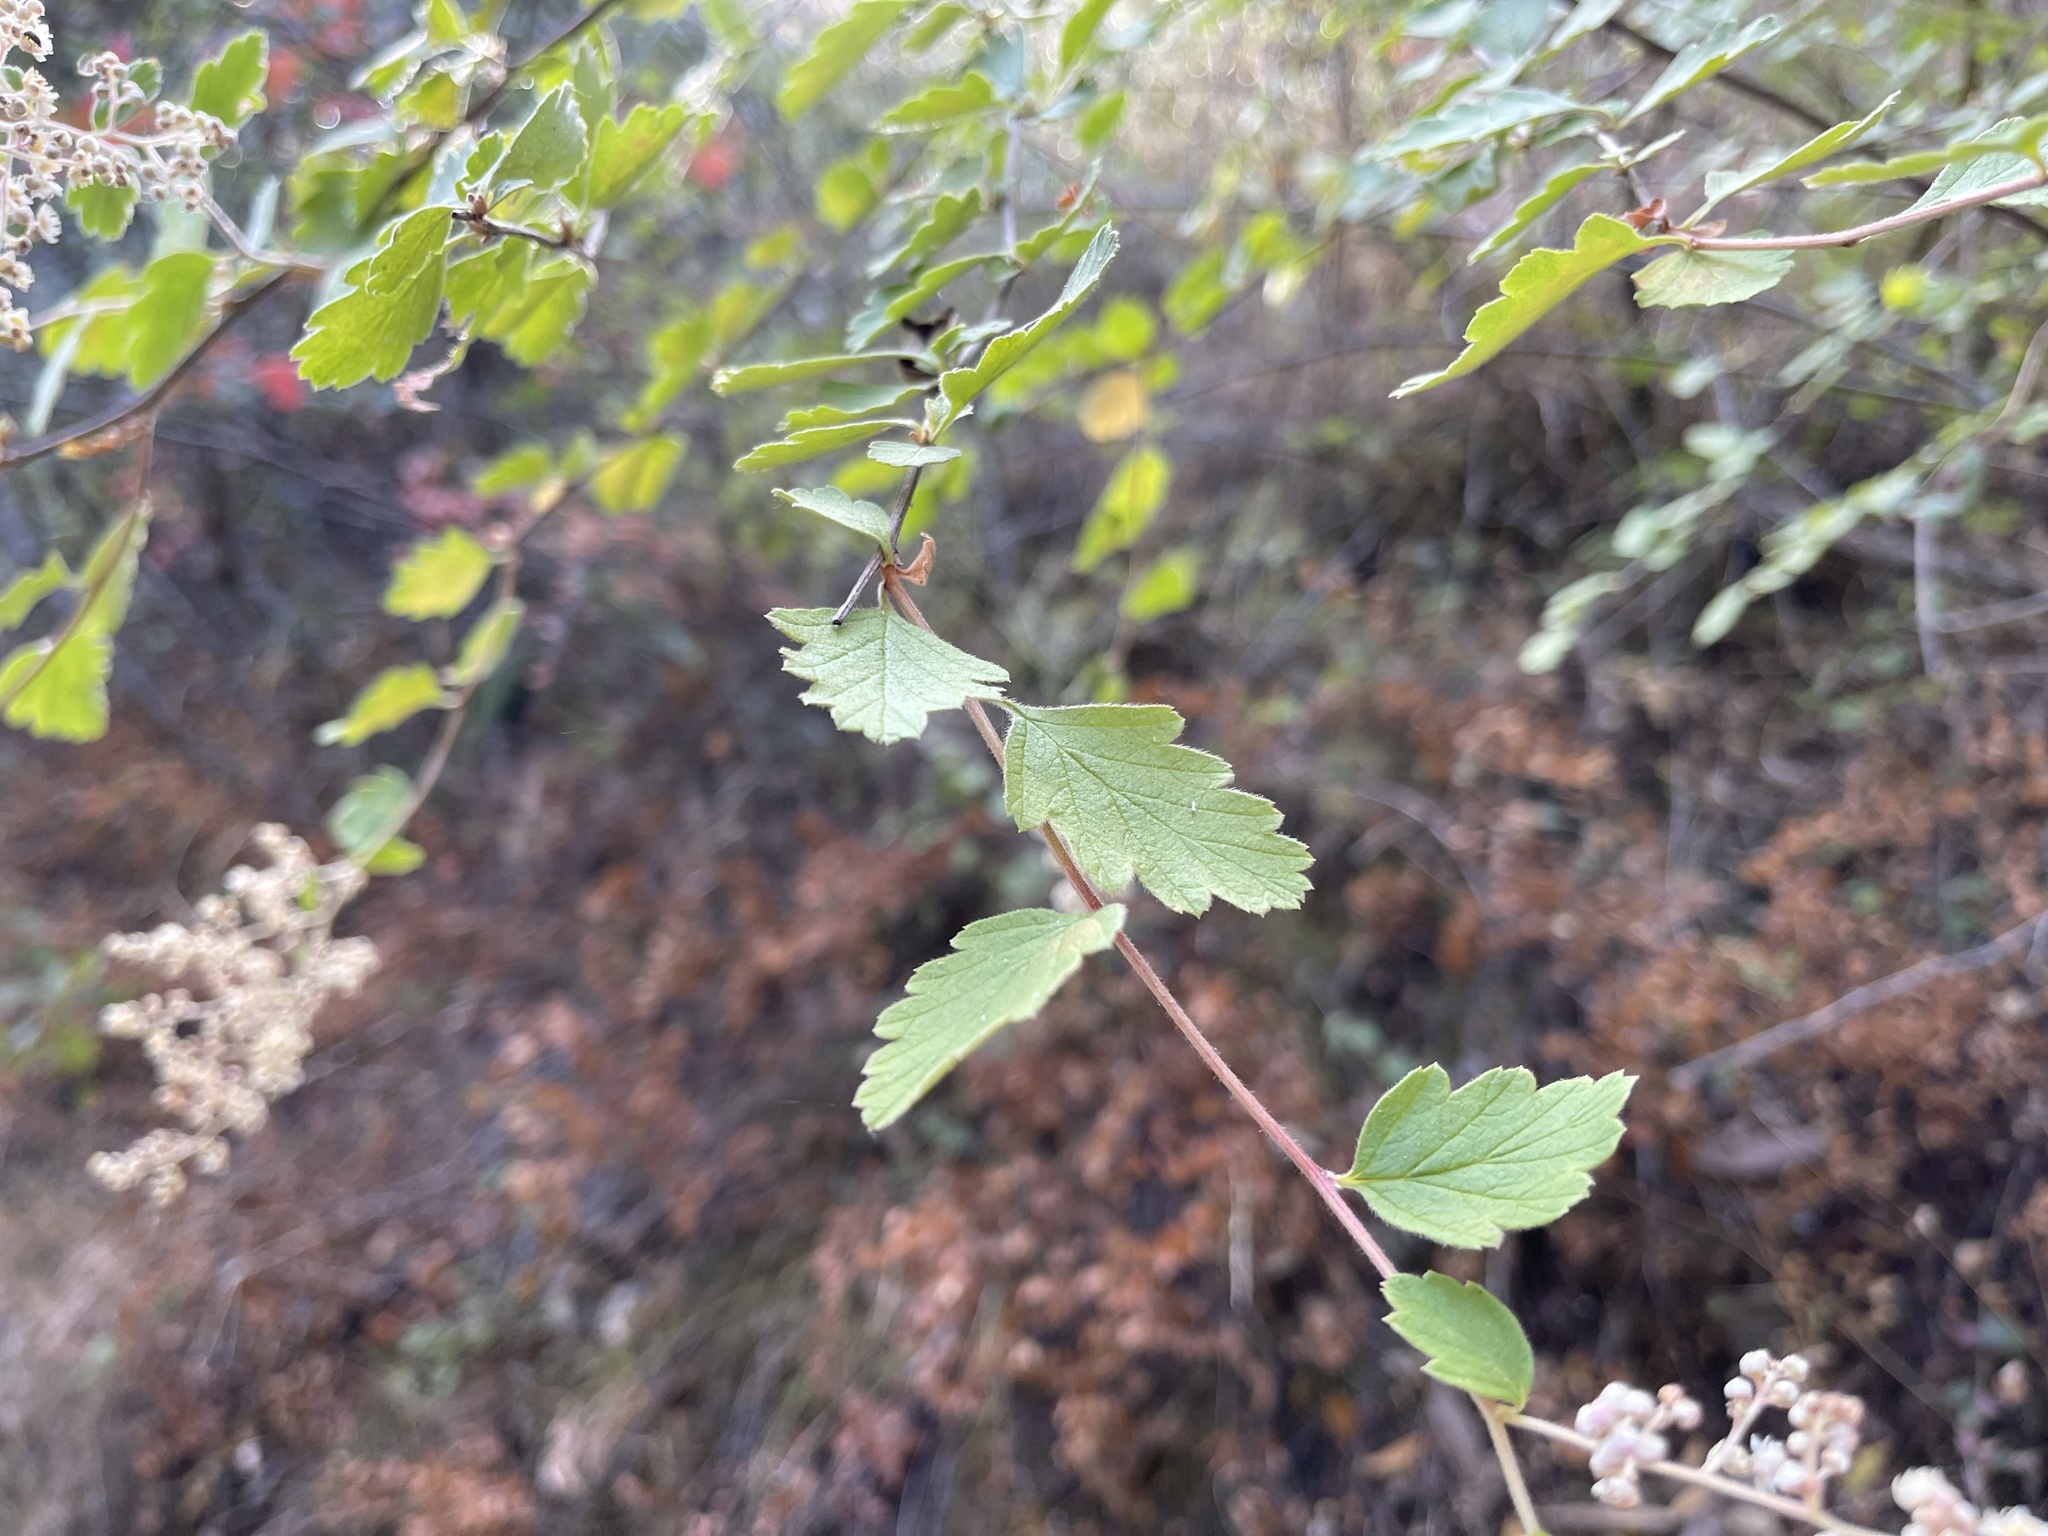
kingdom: Plantae
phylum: Tracheophyta
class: Magnoliopsida
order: Rosales
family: Rosaceae
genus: Holodiscus
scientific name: Holodiscus discolor
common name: Oceanspray
